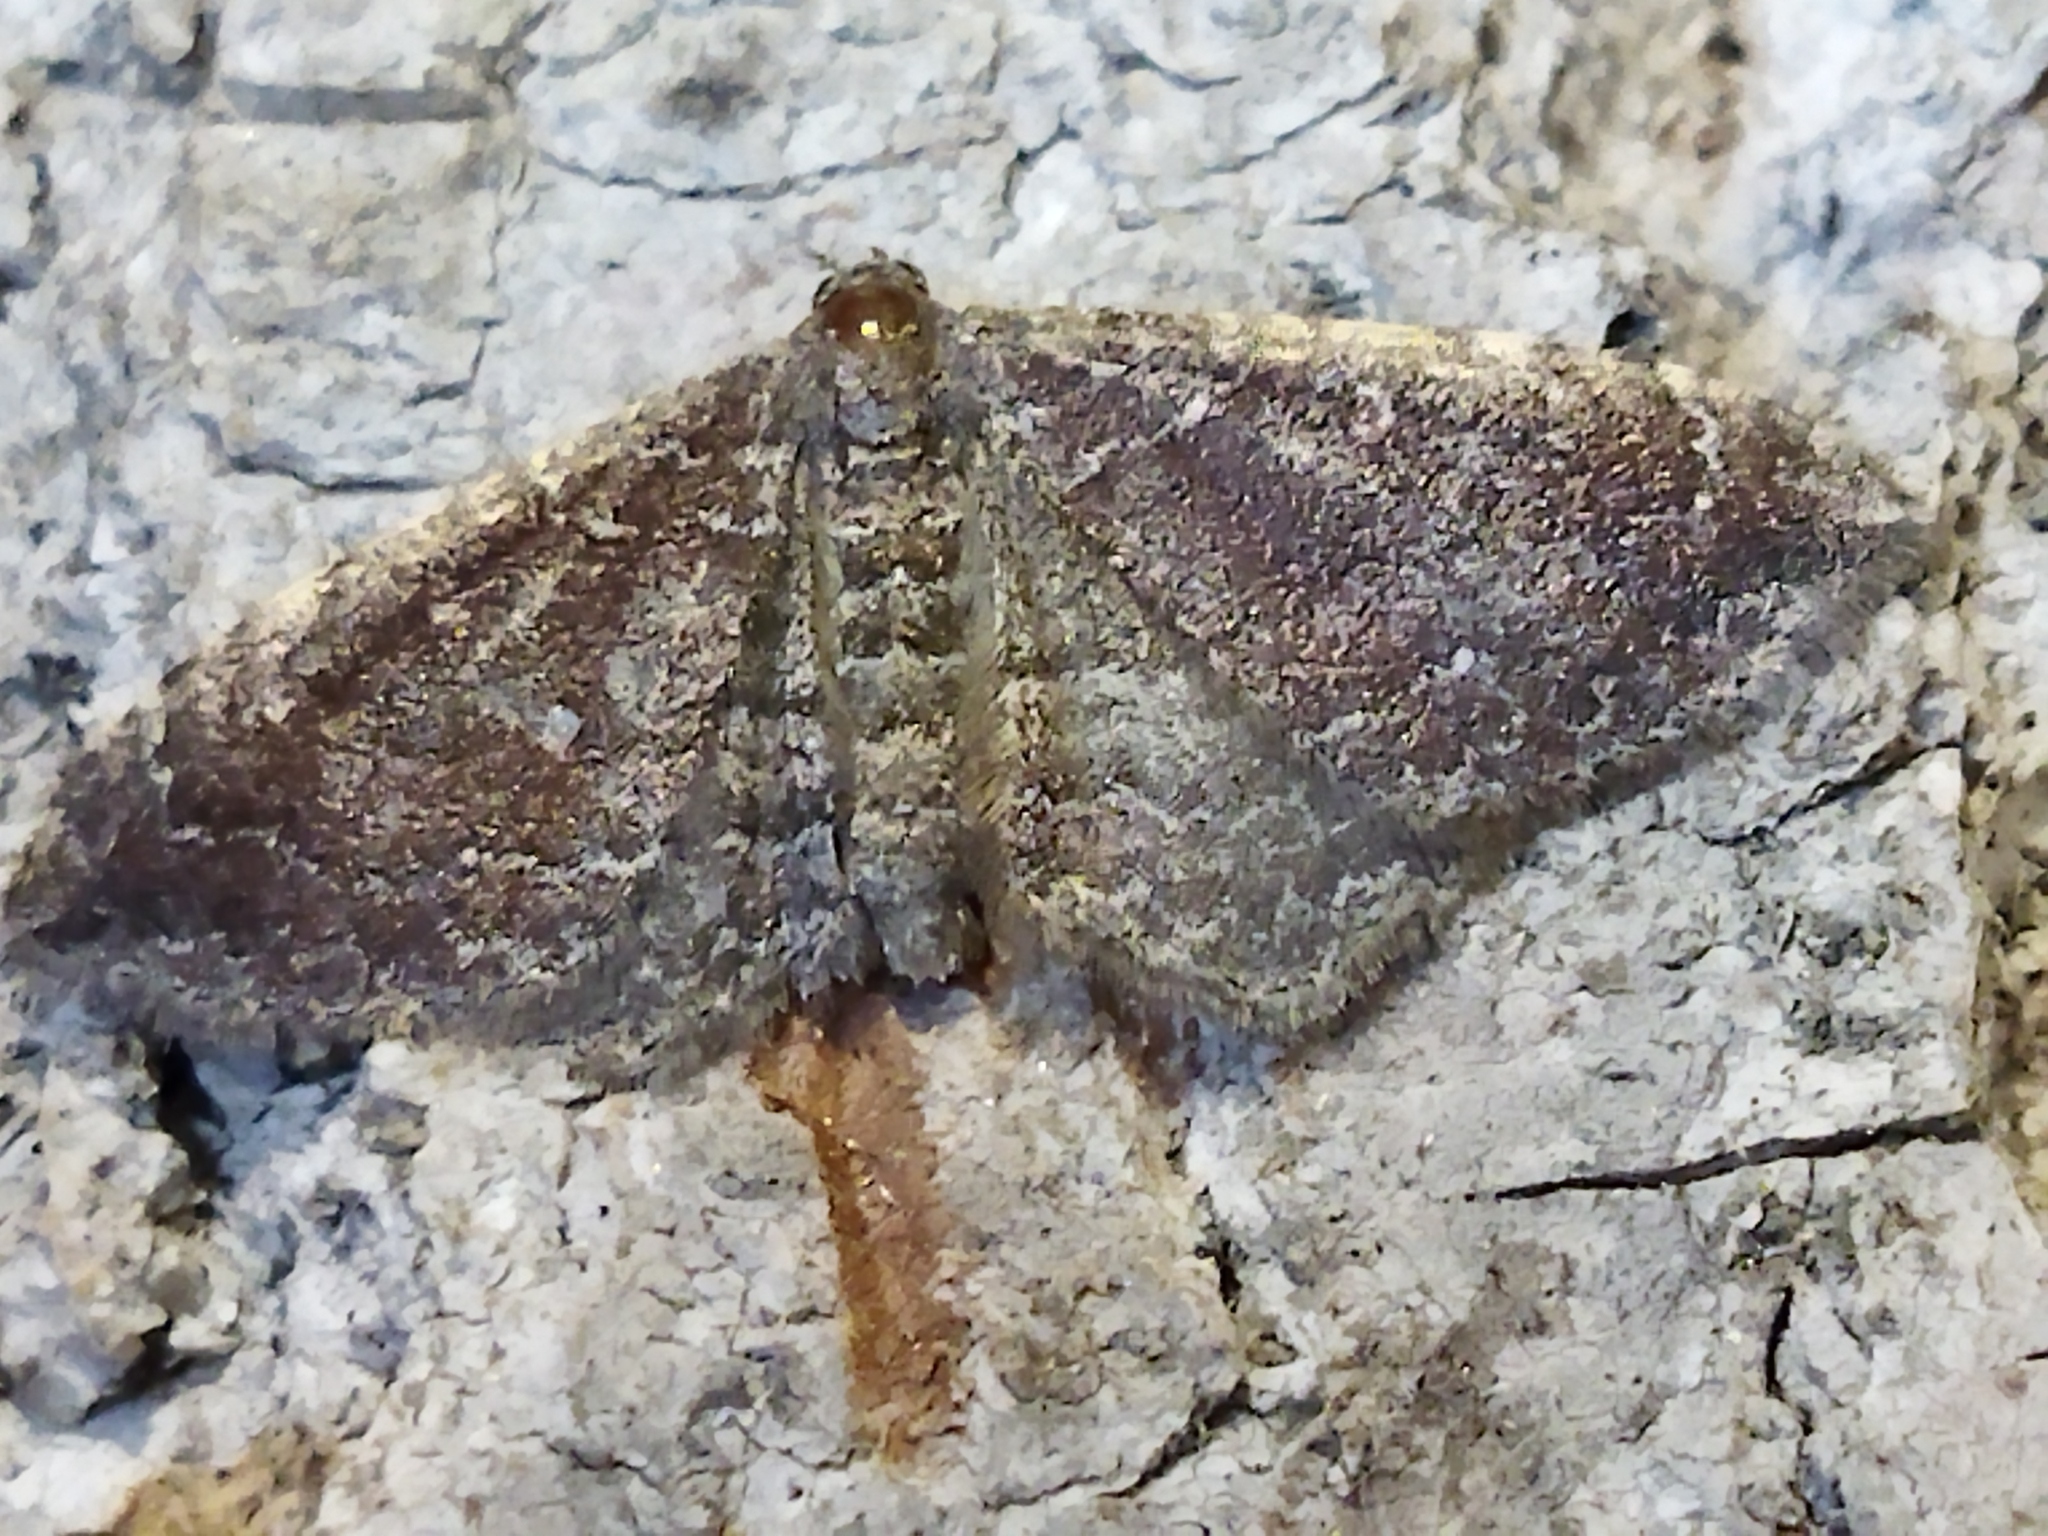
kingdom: Animalia
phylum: Arthropoda
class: Insecta
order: Lepidoptera
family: Geometridae
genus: Orthonama
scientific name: Orthonama obstipata
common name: The gem
